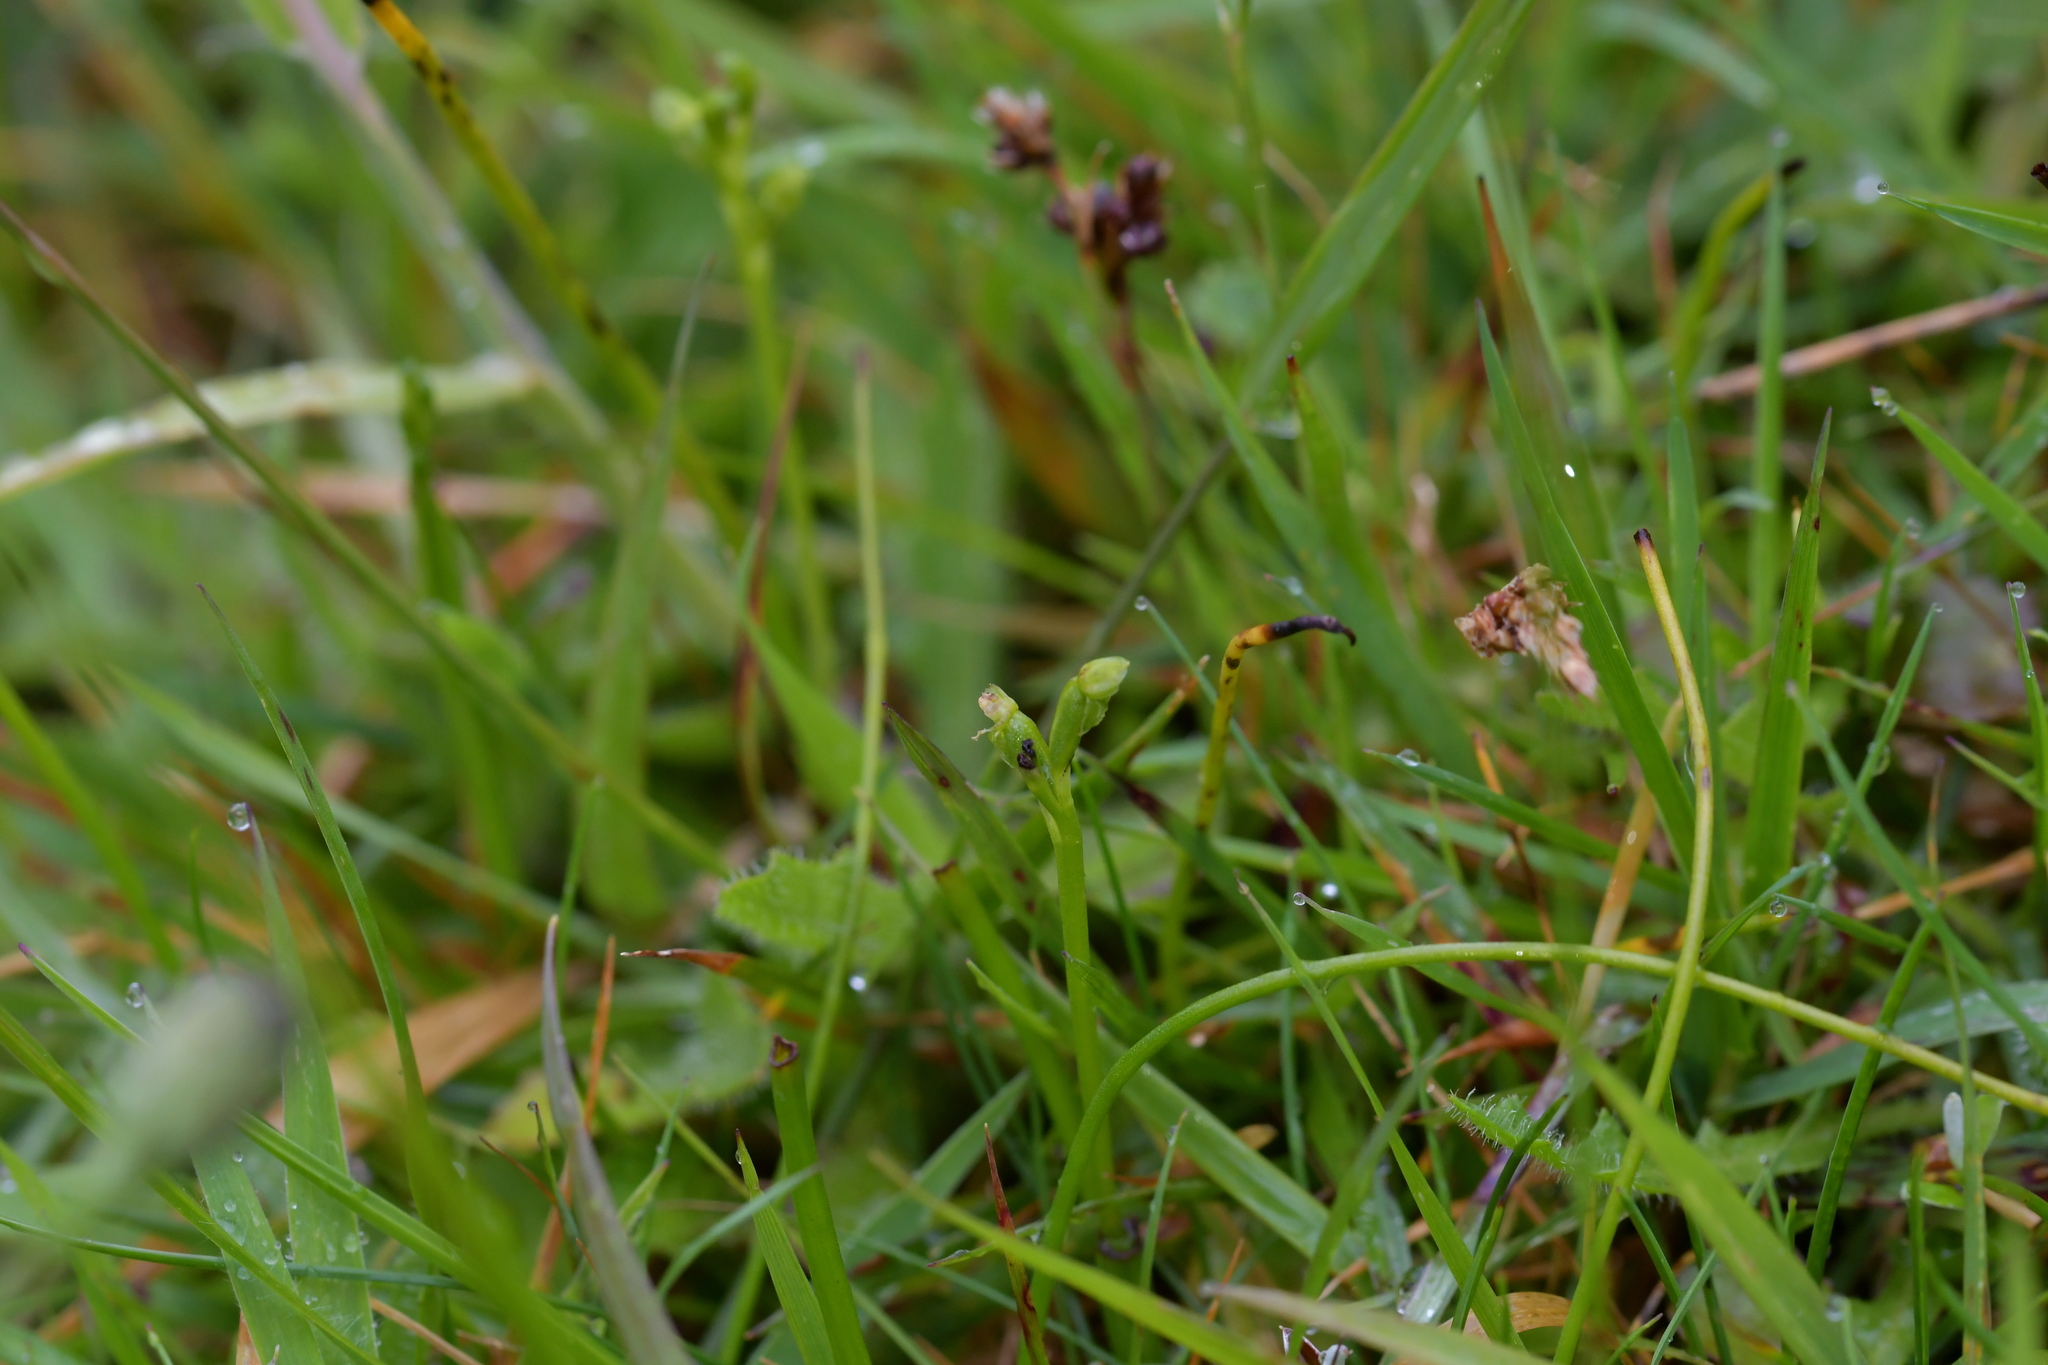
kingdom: Plantae
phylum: Tracheophyta
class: Liliopsida
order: Asparagales
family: Orchidaceae
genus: Microtis
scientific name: Microtis oligantha
